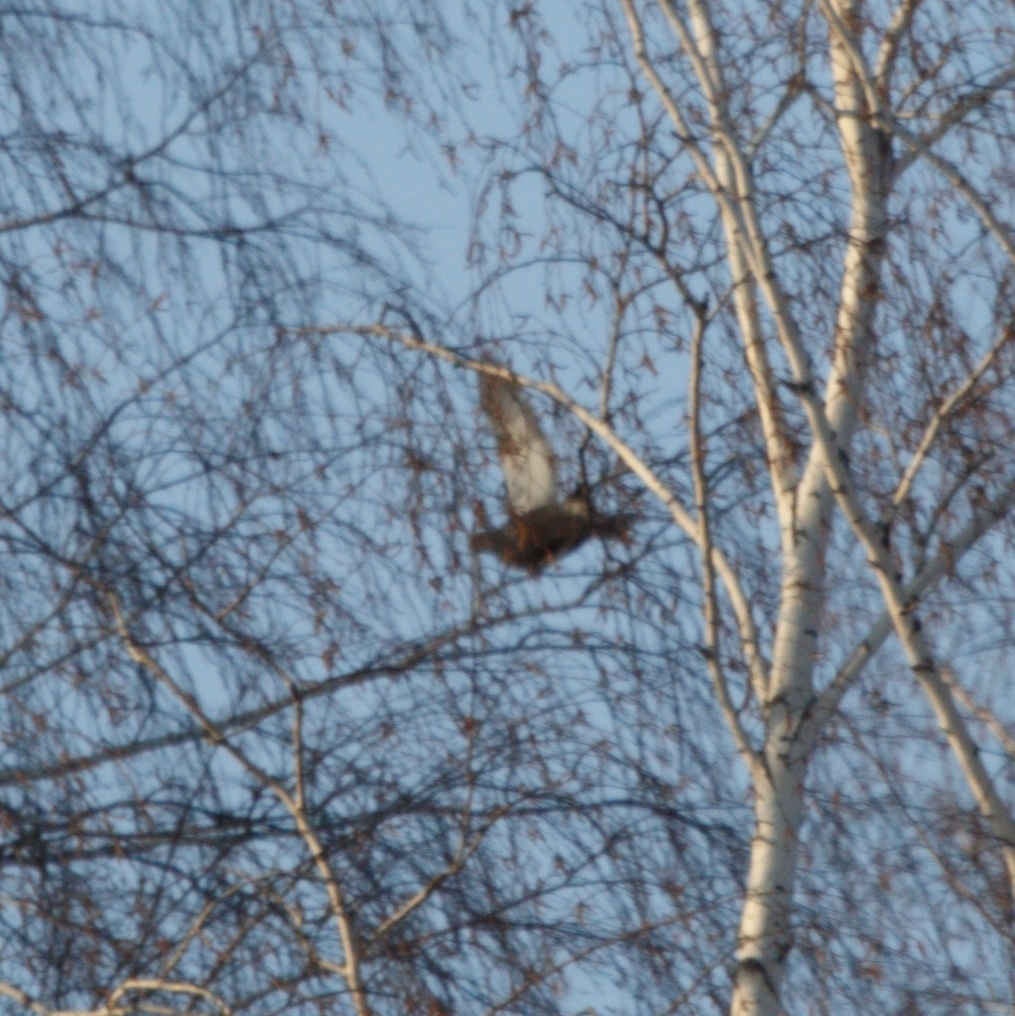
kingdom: Animalia
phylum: Chordata
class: Aves
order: Galliformes
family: Phasianidae
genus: Lyrurus
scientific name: Lyrurus tetrix
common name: Black grouse
